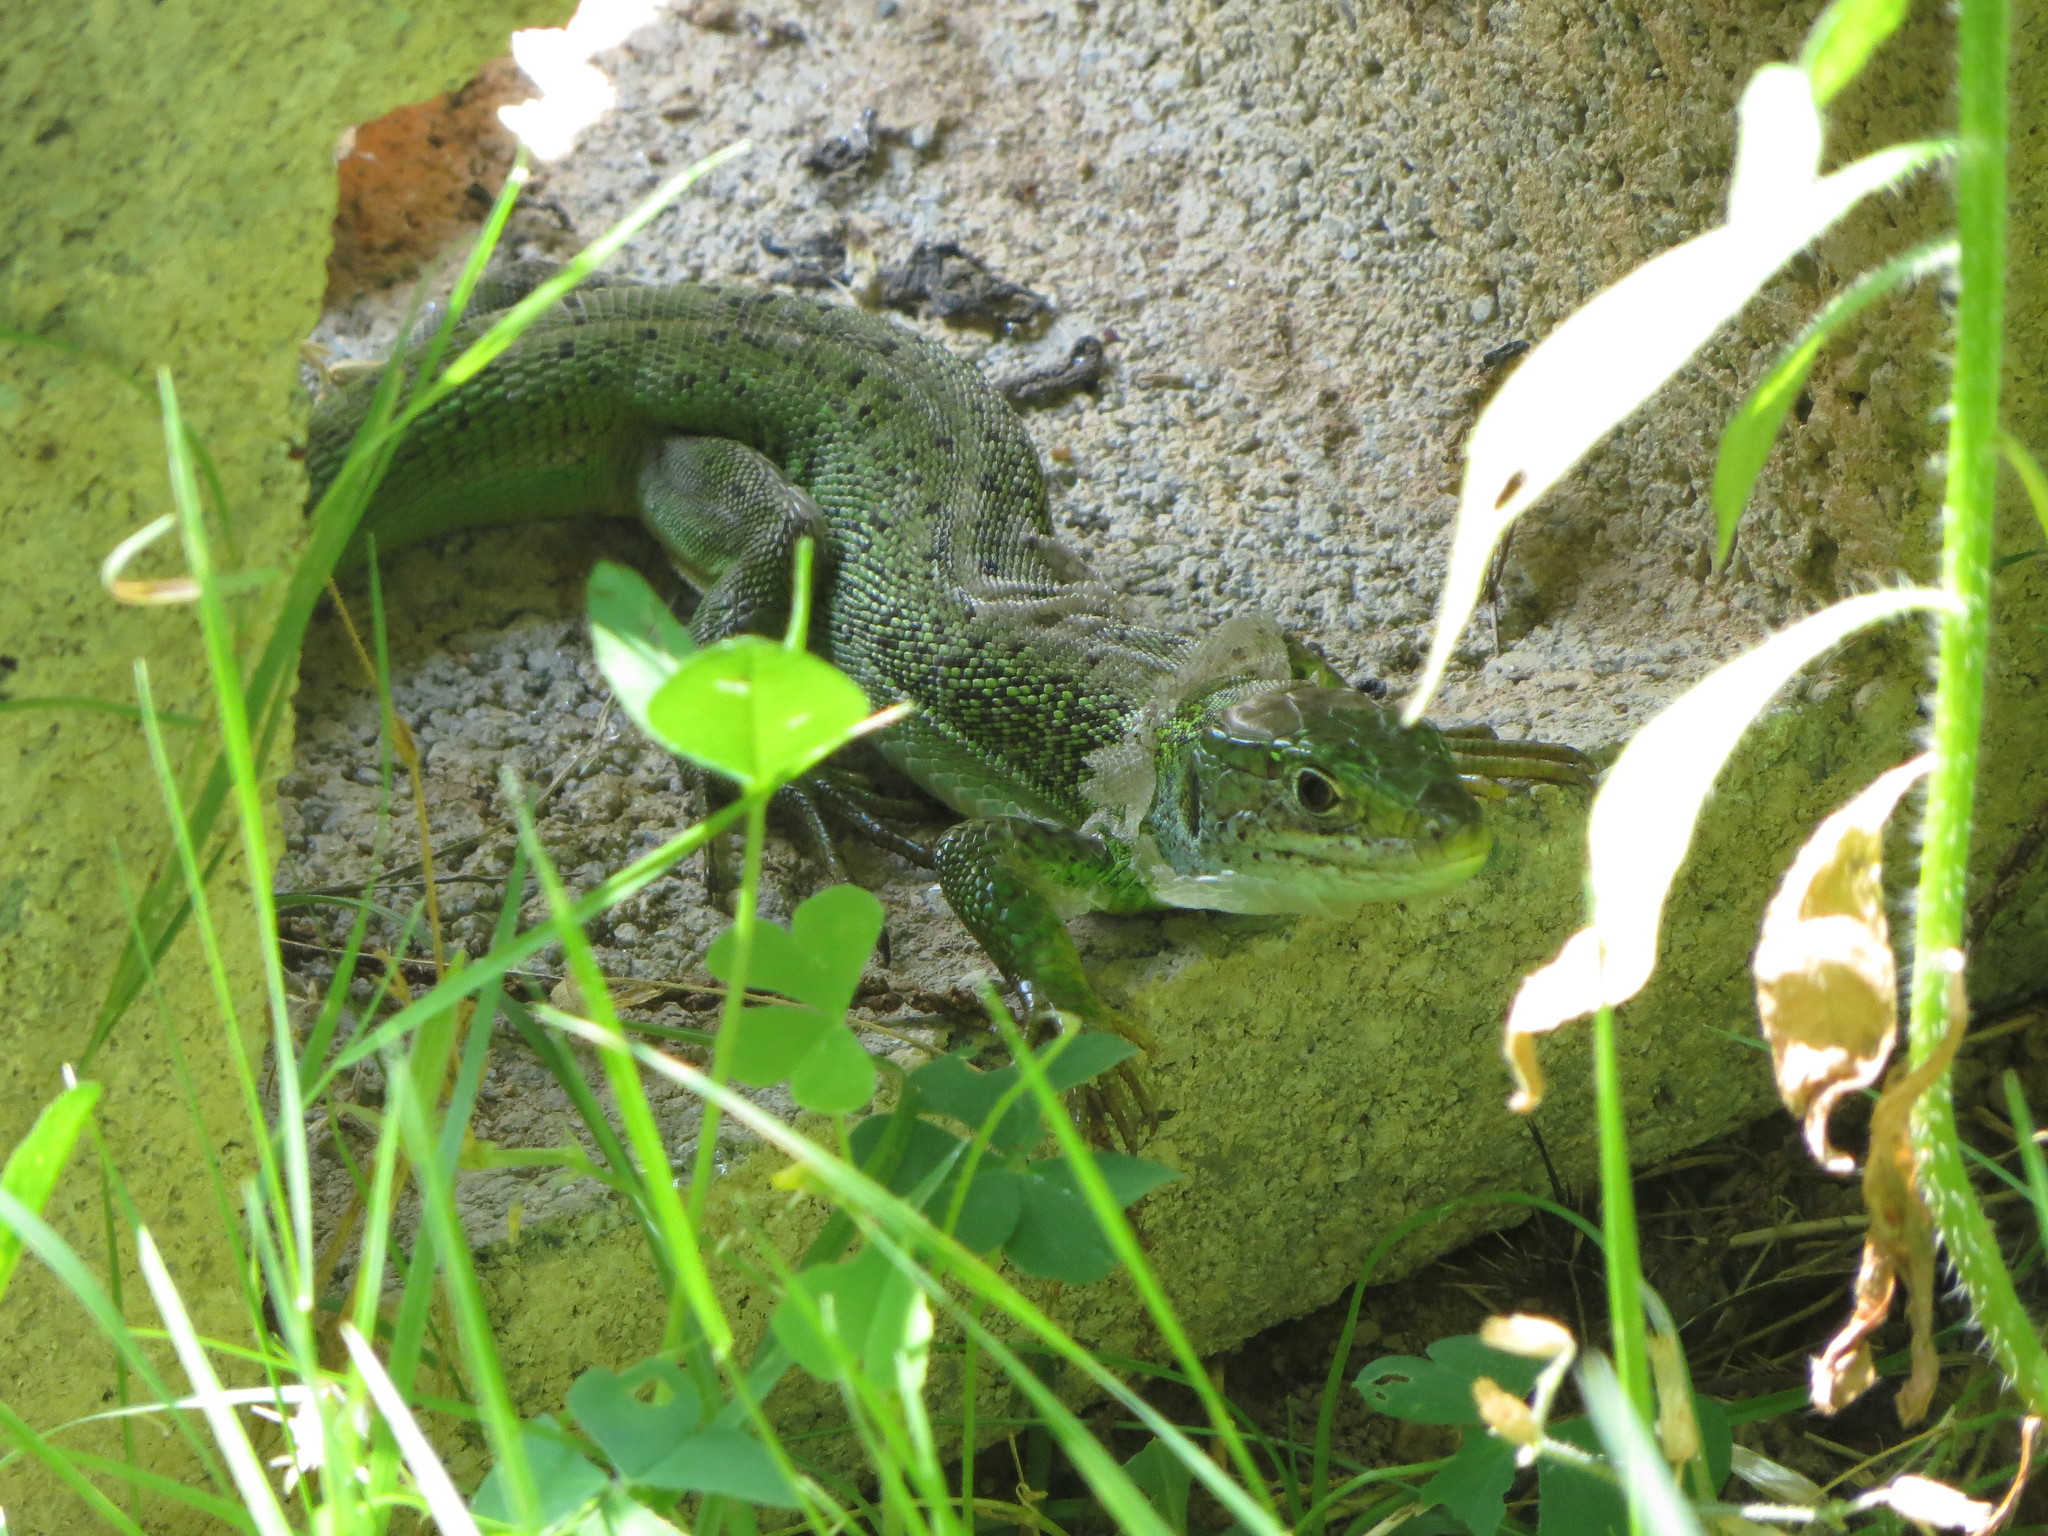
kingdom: Animalia
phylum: Chordata
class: Squamata
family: Lacertidae
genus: Lacerta
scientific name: Lacerta bilineata
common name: Western green lizard
